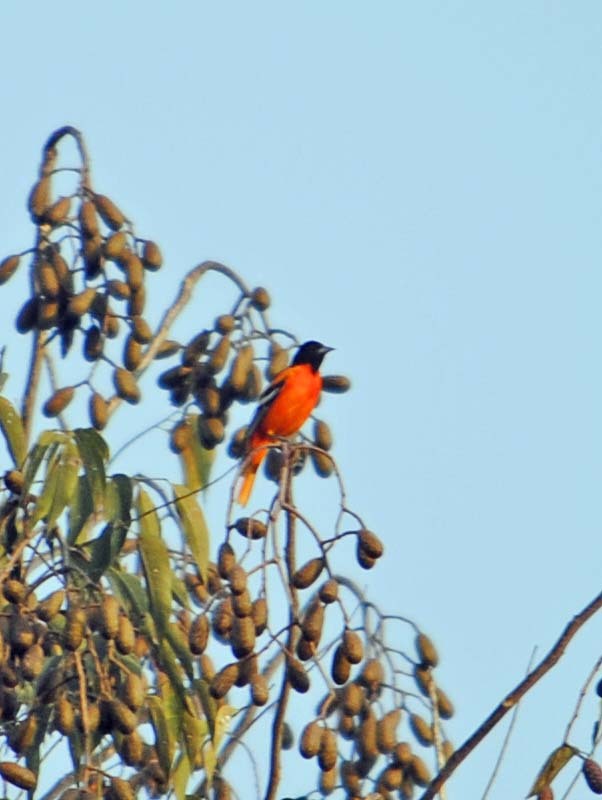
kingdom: Animalia
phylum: Chordata
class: Aves
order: Passeriformes
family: Icteridae
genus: Icterus
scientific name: Icterus galbula
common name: Baltimore oriole
